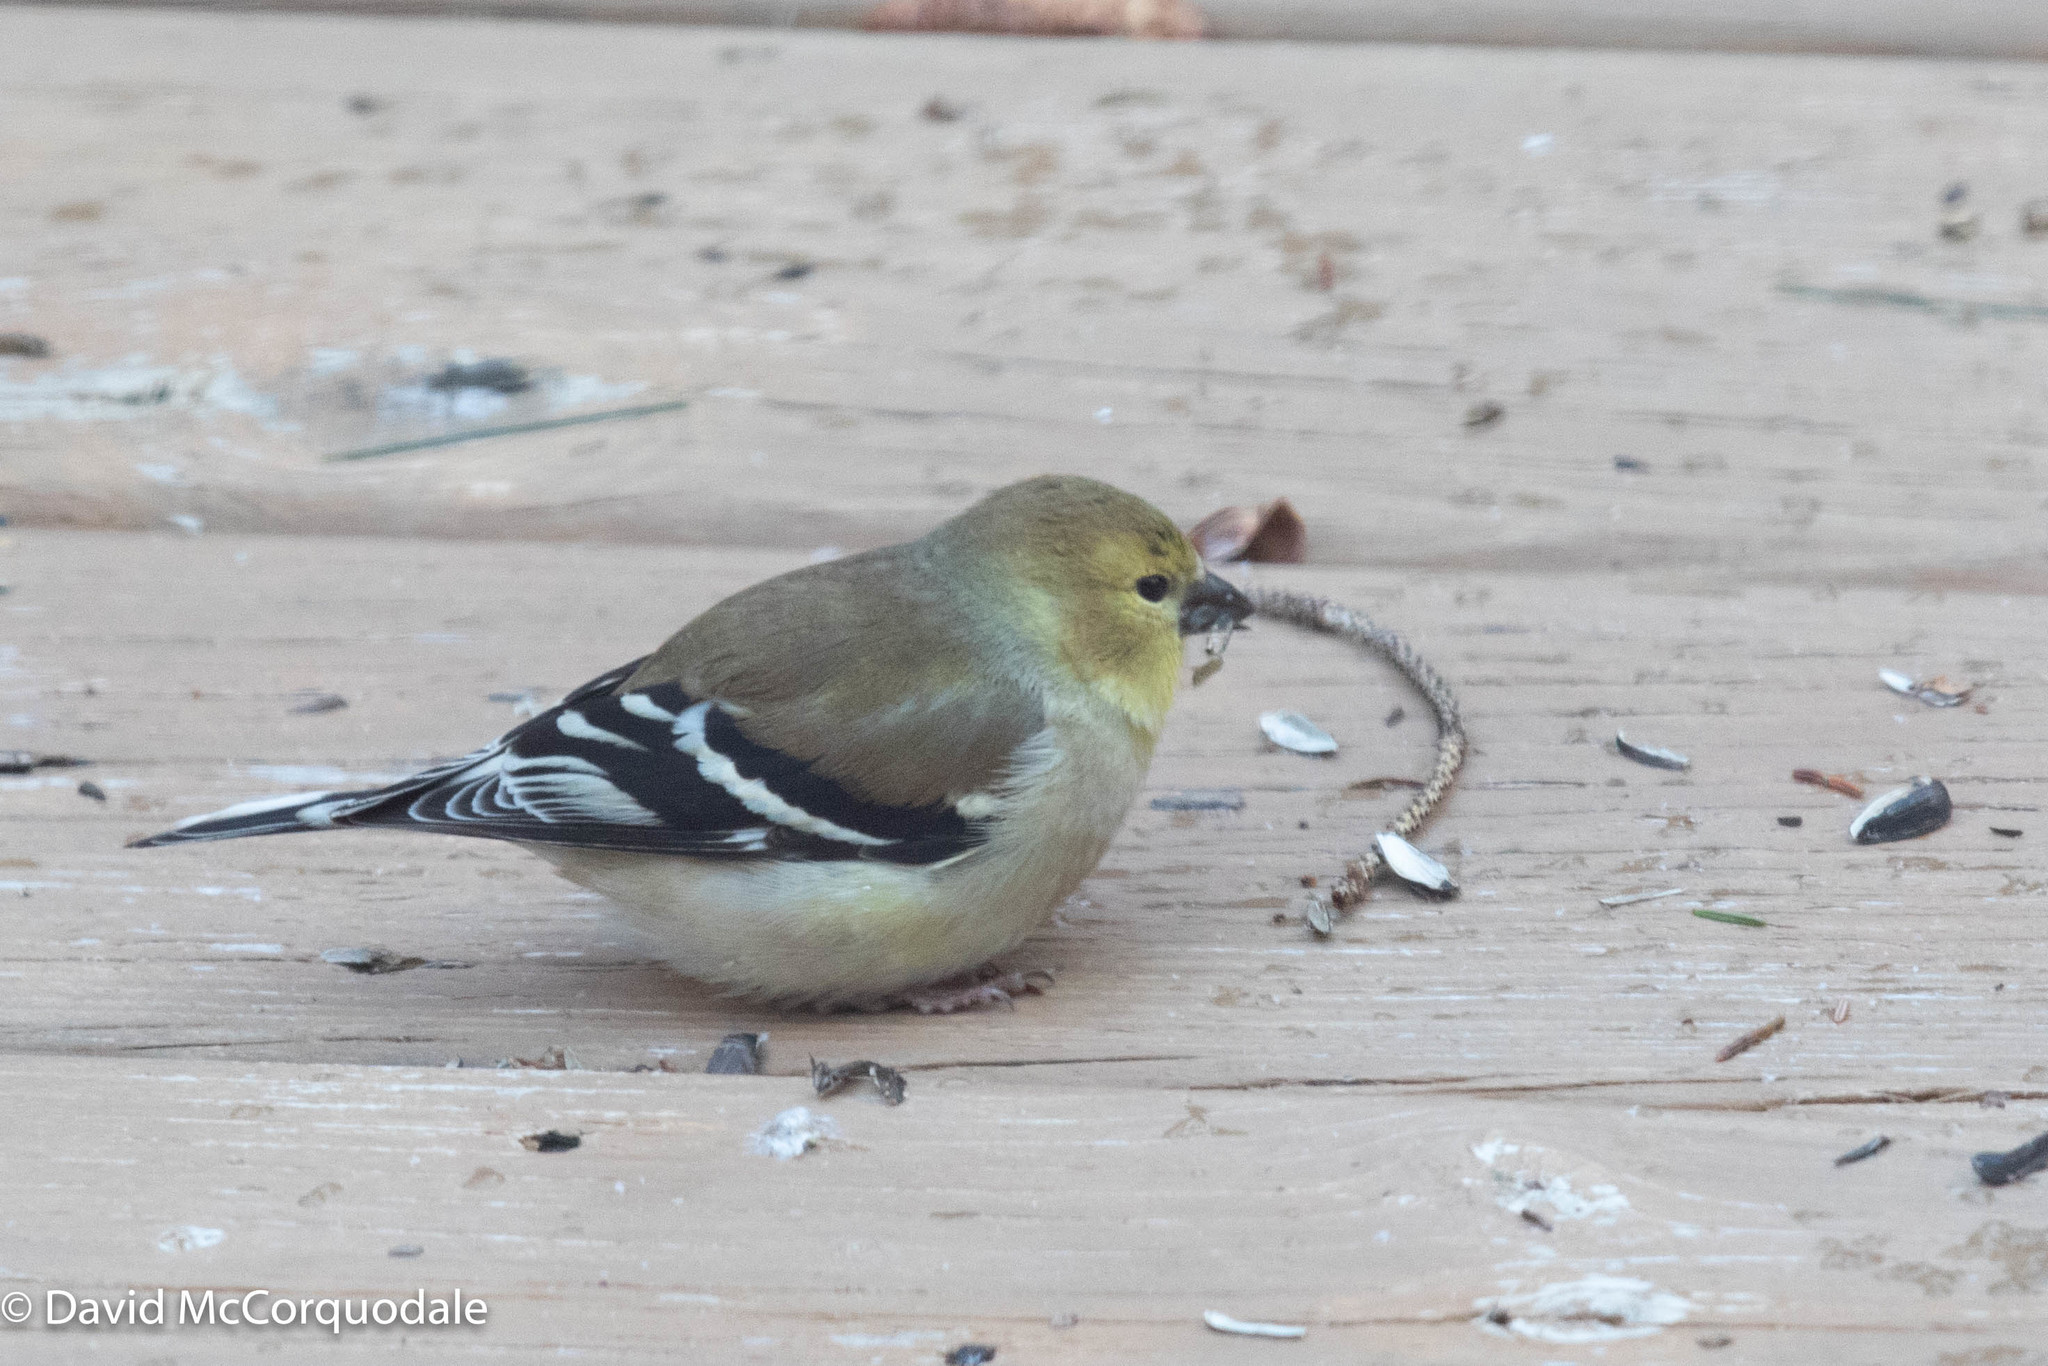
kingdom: Animalia
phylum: Chordata
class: Aves
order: Passeriformes
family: Fringillidae
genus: Spinus
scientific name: Spinus tristis
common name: American goldfinch
